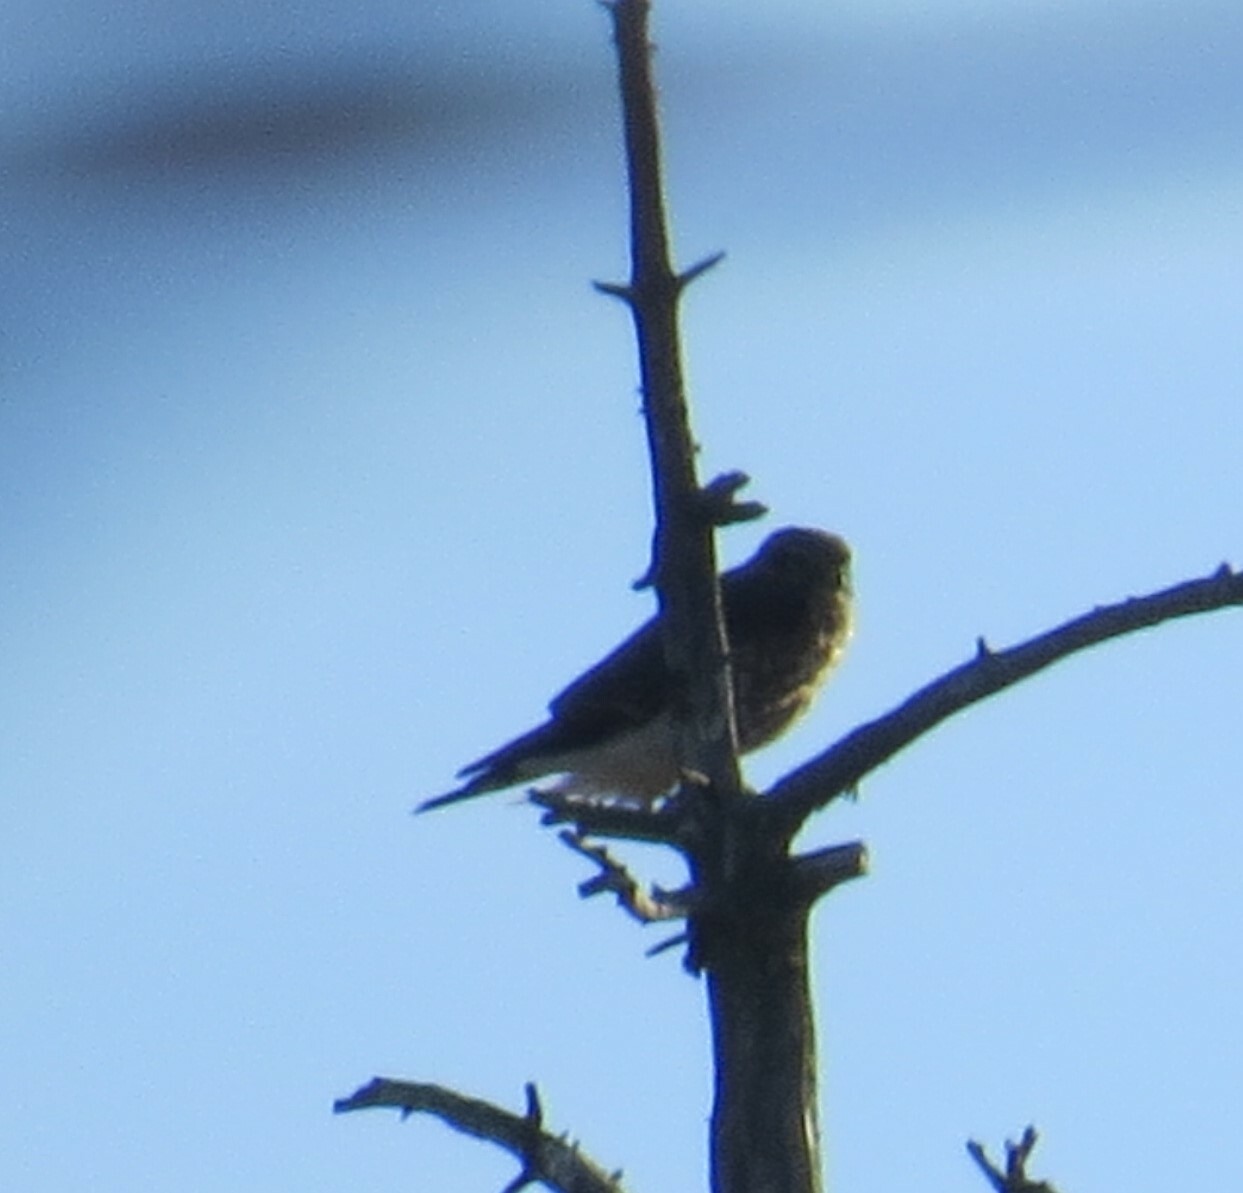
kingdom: Animalia
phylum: Chordata
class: Aves
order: Falconiformes
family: Falconidae
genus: Falco
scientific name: Falco columbarius
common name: Merlin
